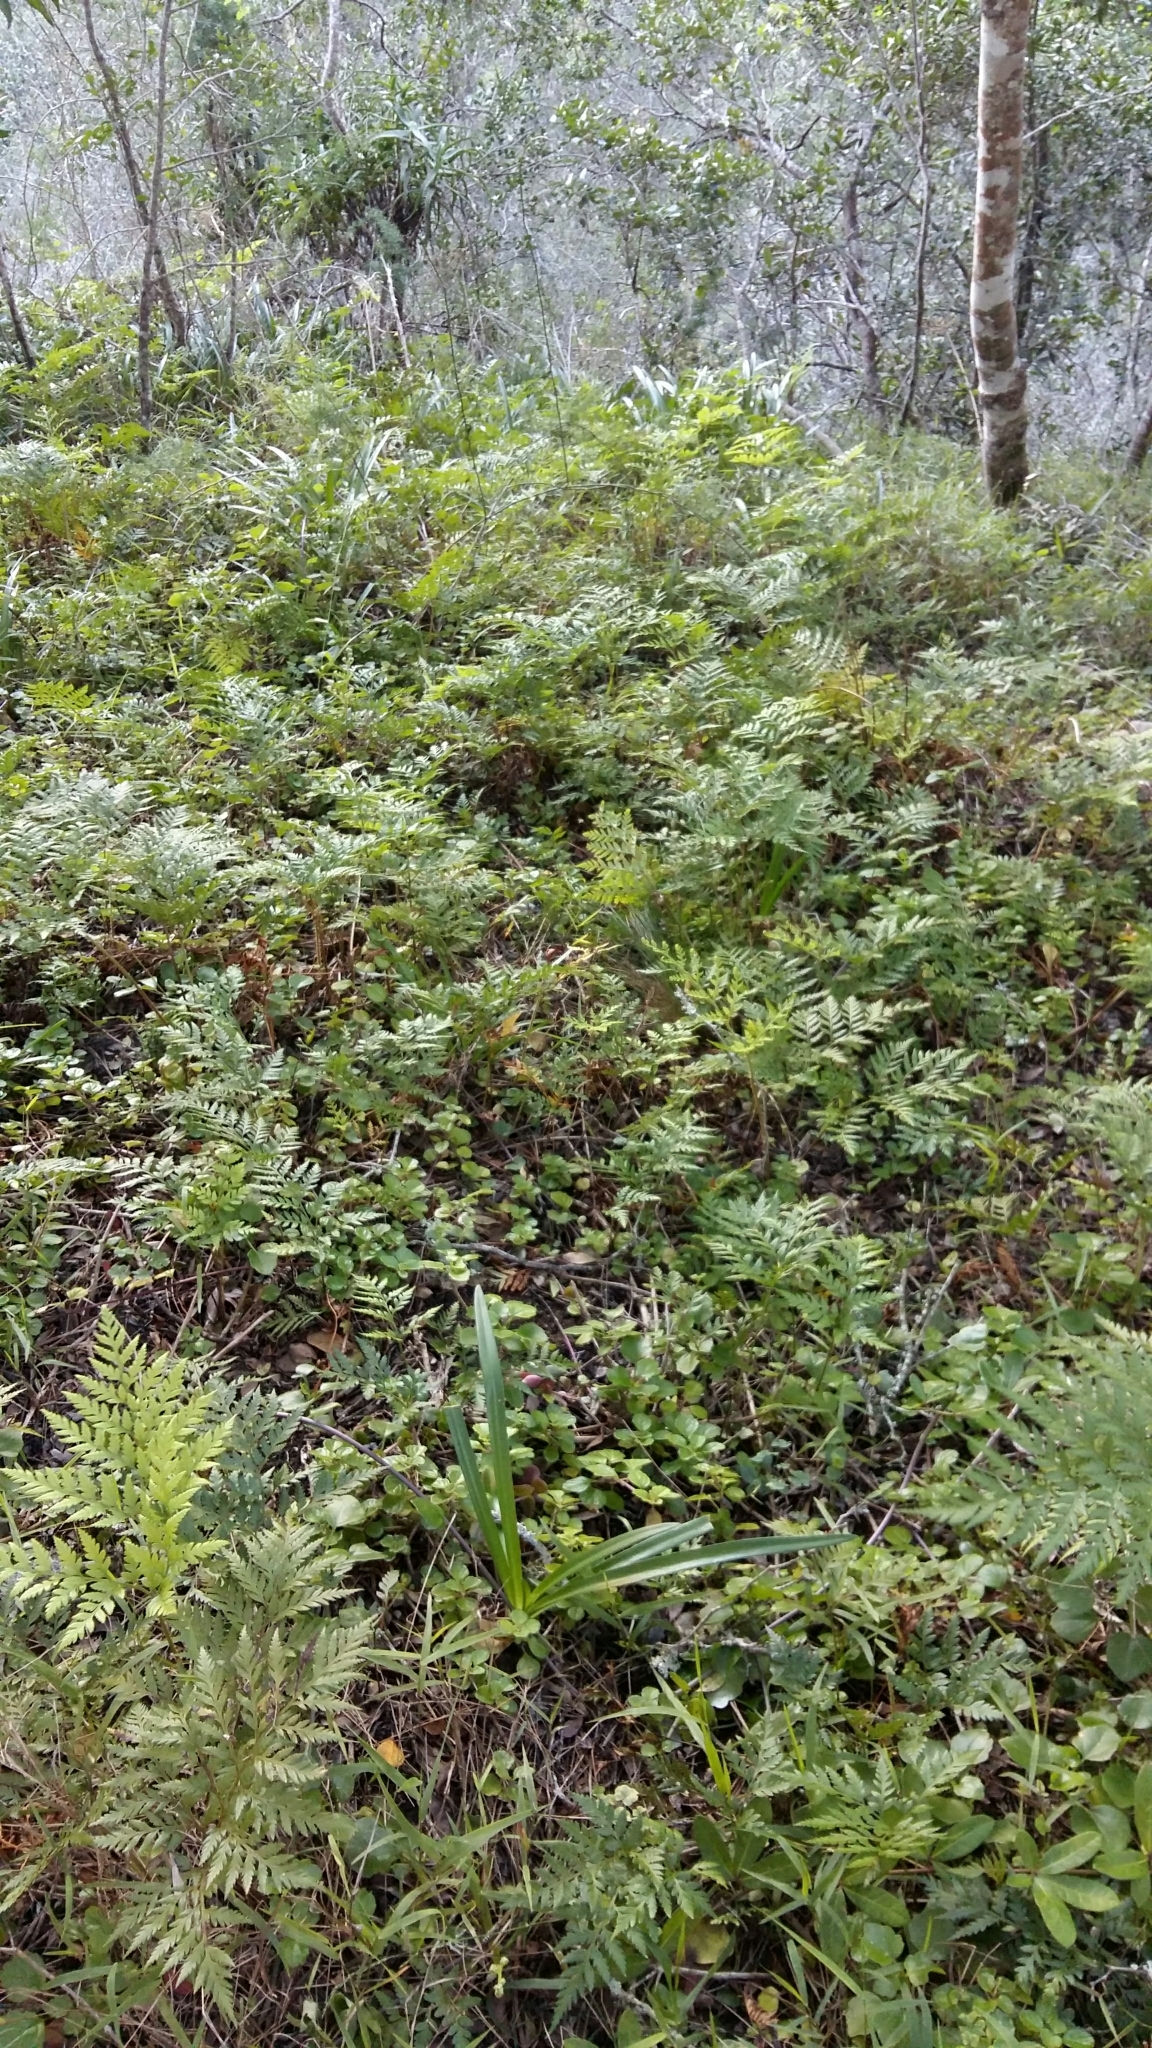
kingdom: Plantae
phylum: Tracheophyta
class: Polypodiopsida
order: Polypodiales
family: Dryopteridaceae
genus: Rumohra
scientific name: Rumohra adiantiformis
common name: Leather fern
